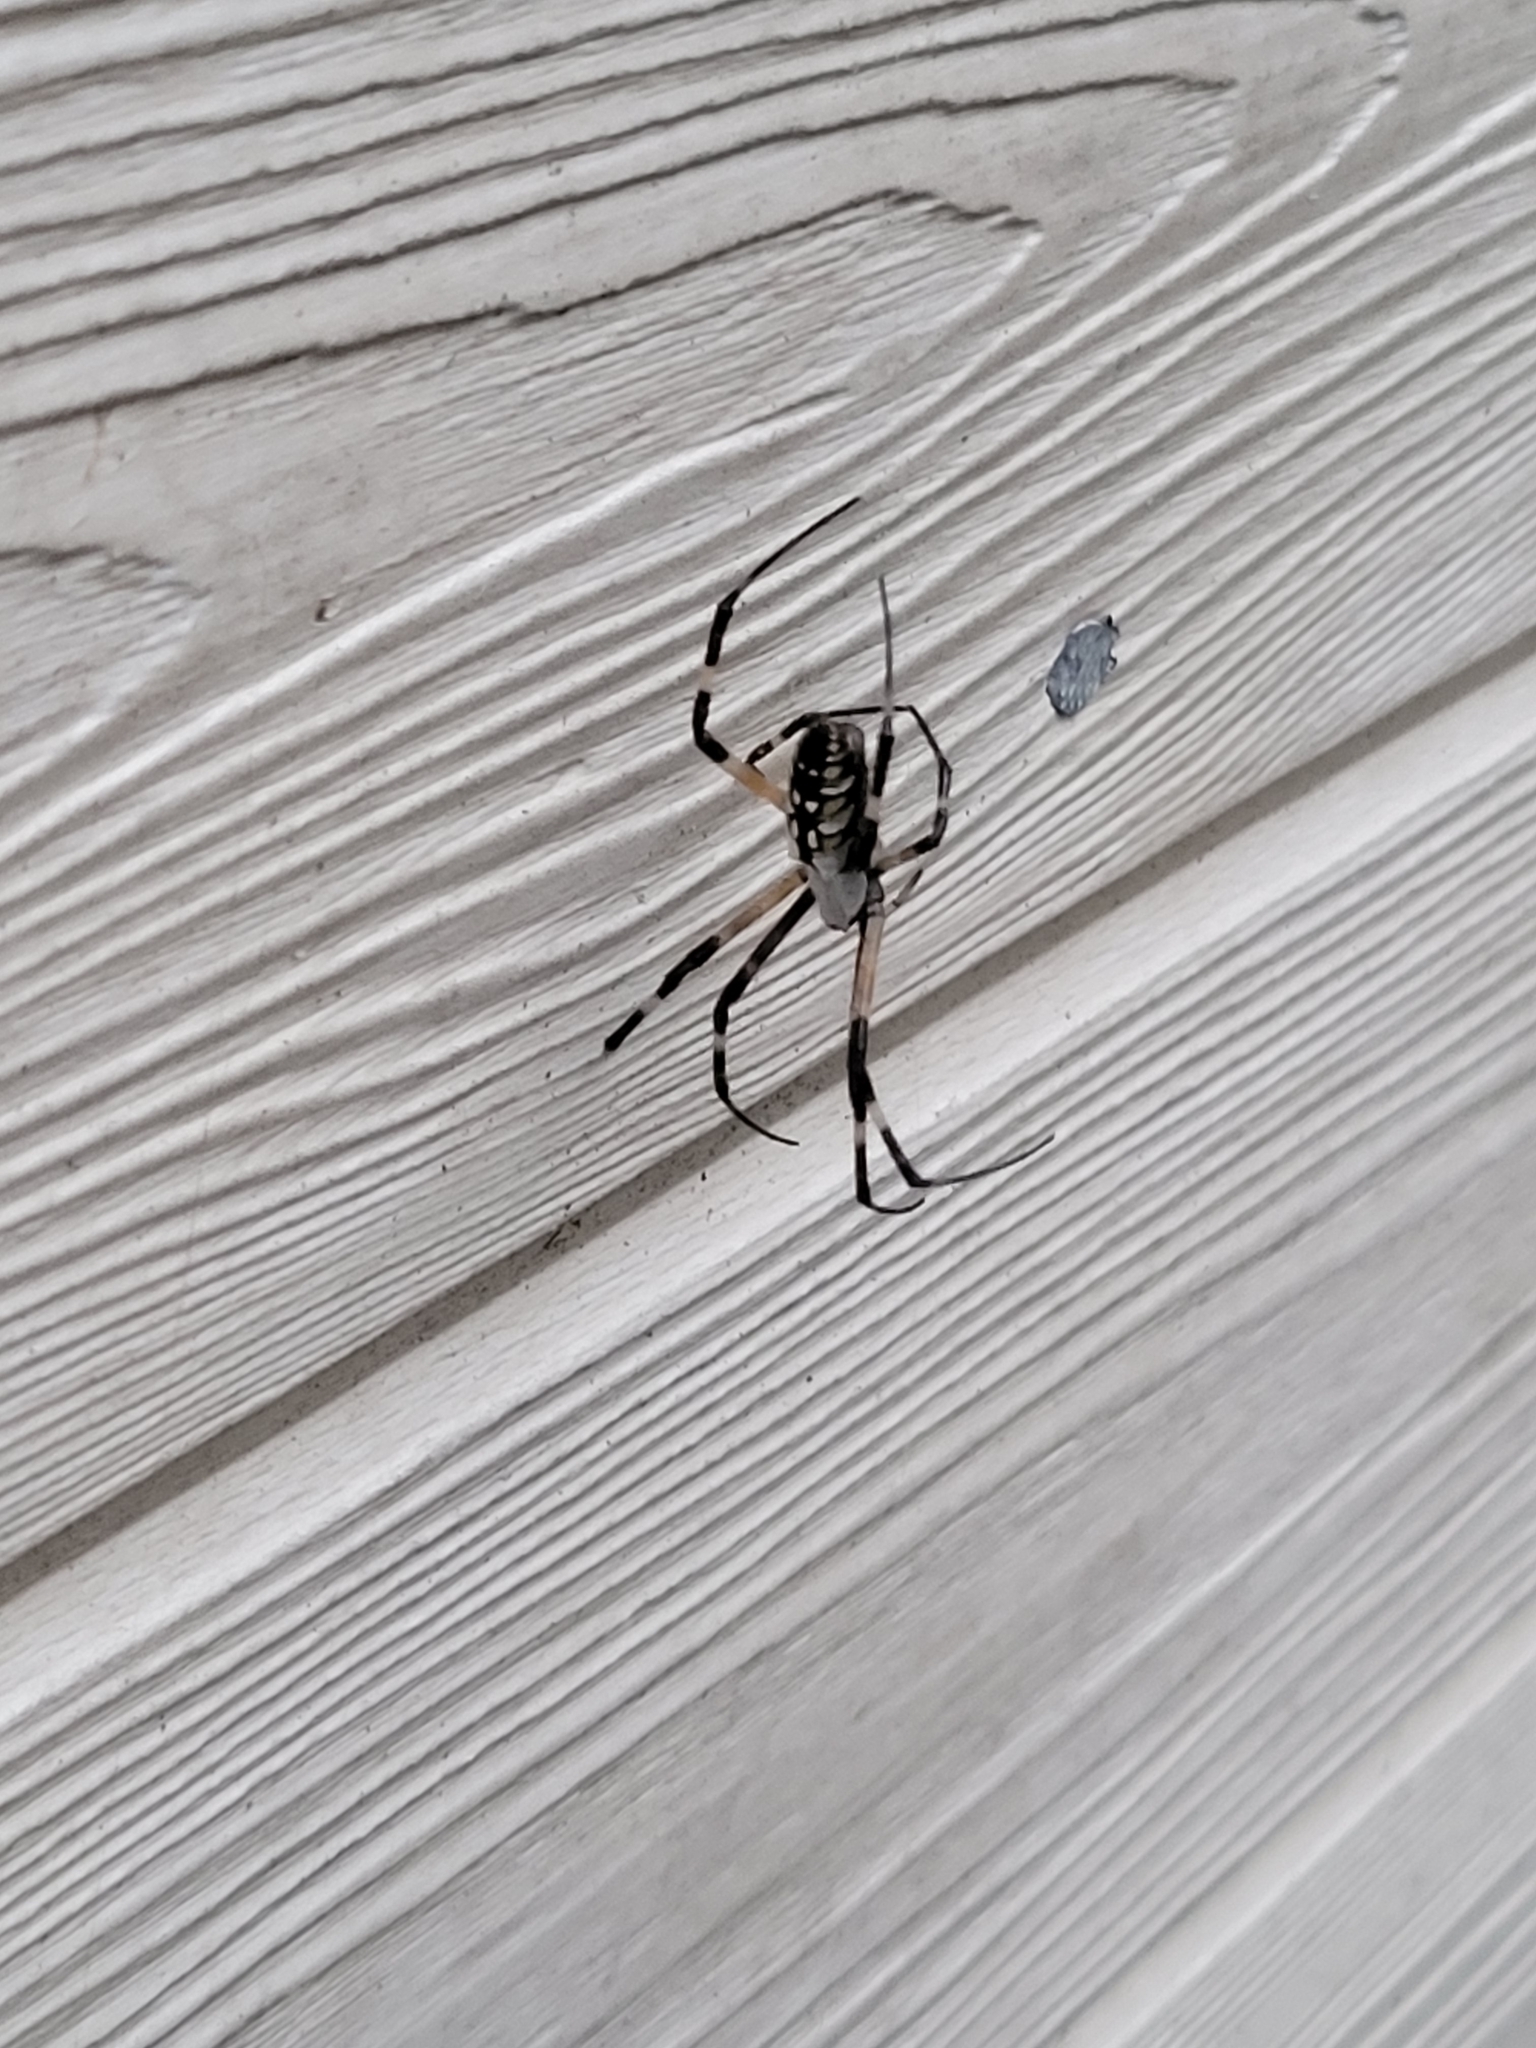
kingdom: Animalia
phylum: Arthropoda
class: Arachnida
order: Araneae
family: Araneidae
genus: Argiope
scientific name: Argiope aurantia
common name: Orb weavers
